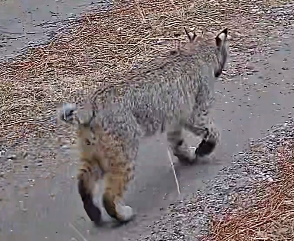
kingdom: Animalia
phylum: Chordata
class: Mammalia
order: Carnivora
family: Felidae
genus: Lynx
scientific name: Lynx rufus
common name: Bobcat
